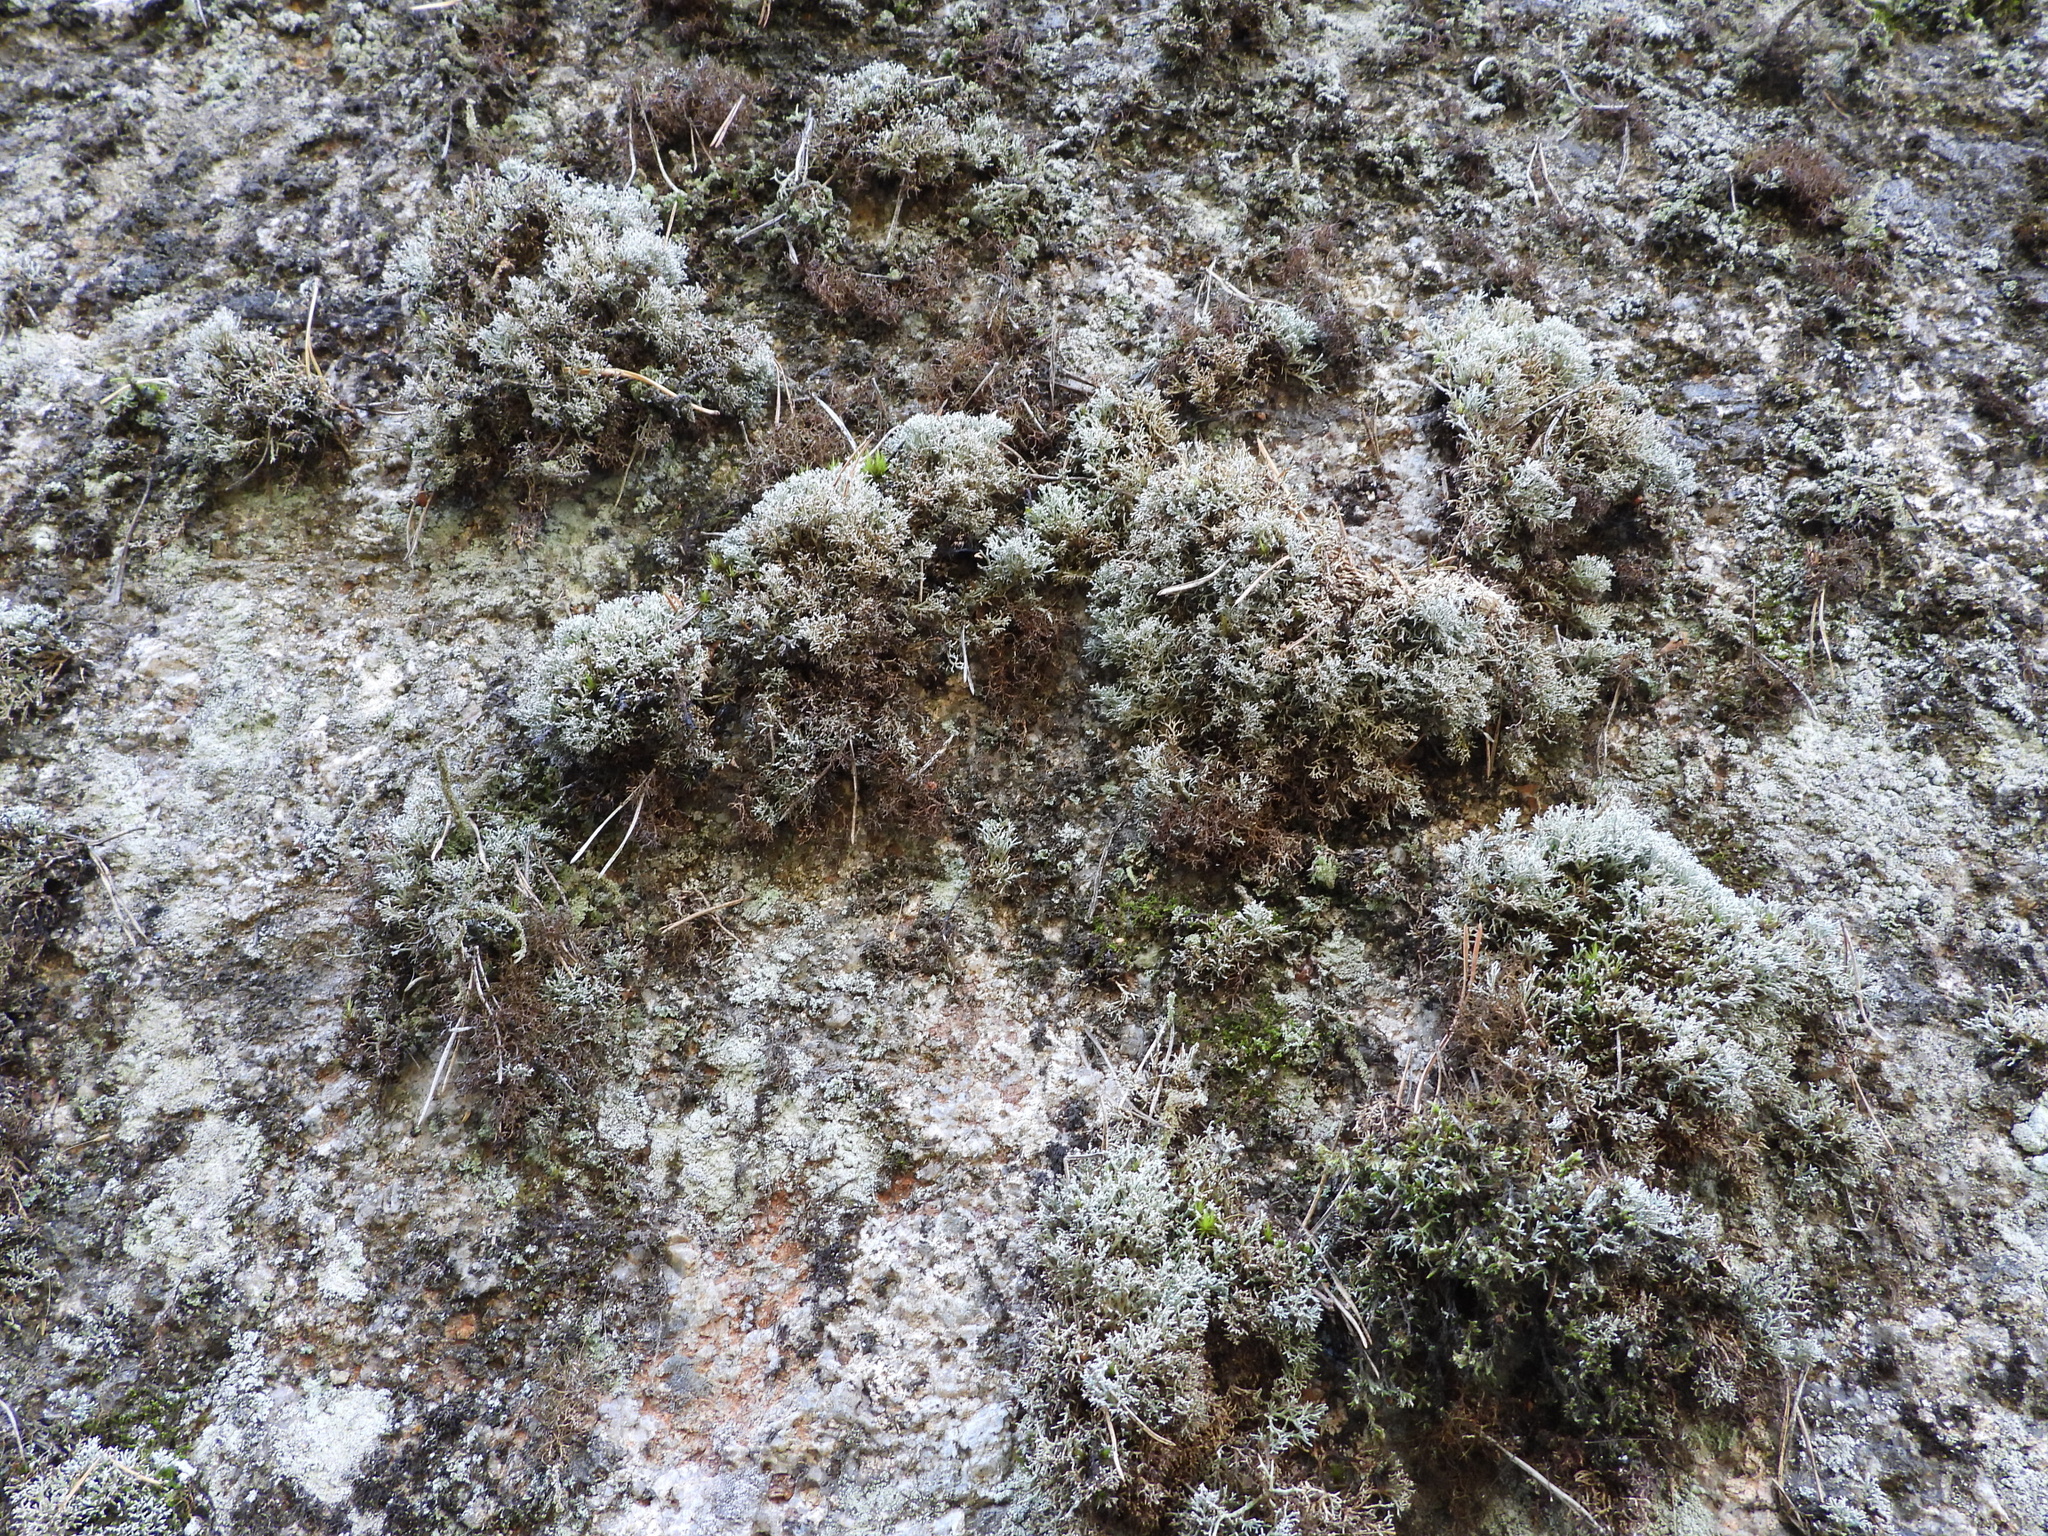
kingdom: Fungi
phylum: Ascomycota
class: Lecanoromycetes
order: Lecanorales
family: Sphaerophoraceae
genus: Sphaerophorus
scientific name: Sphaerophorus fragilis
